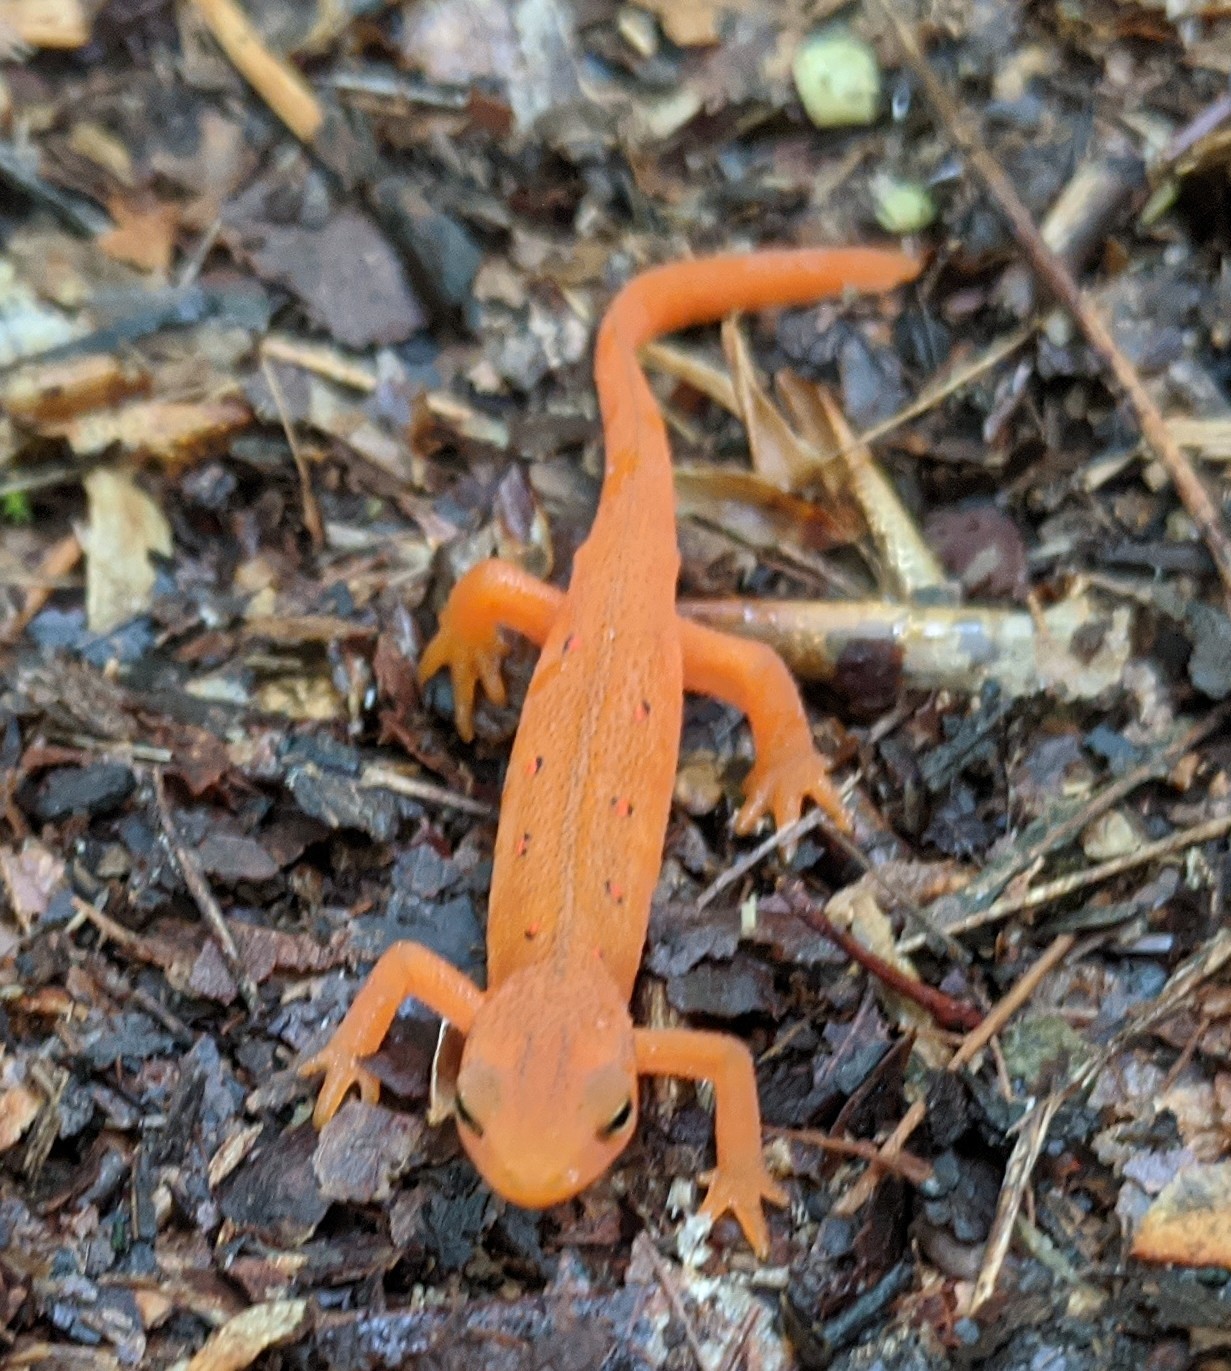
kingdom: Animalia
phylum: Chordata
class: Amphibia
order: Caudata
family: Salamandridae
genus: Notophthalmus
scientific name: Notophthalmus viridescens
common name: Eastern newt
